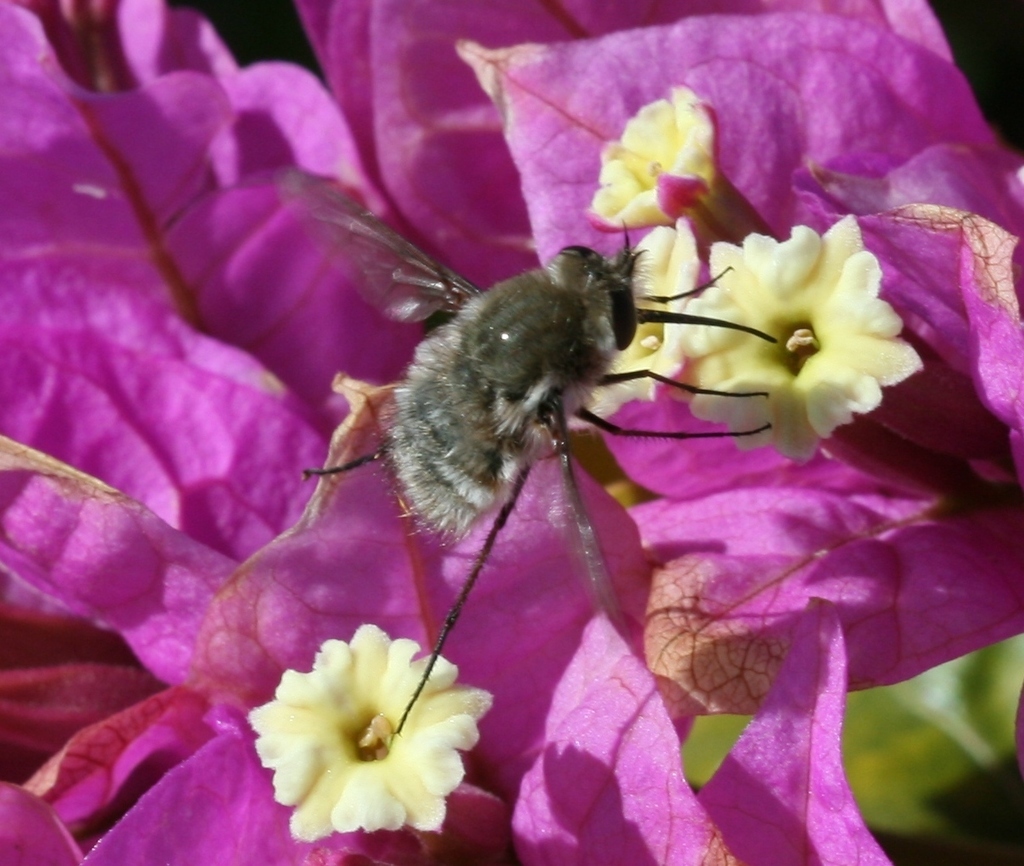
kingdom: Animalia
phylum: Arthropoda
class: Insecta
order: Diptera
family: Bombyliidae
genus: Dischistus
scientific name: Dischistus atlanticus
